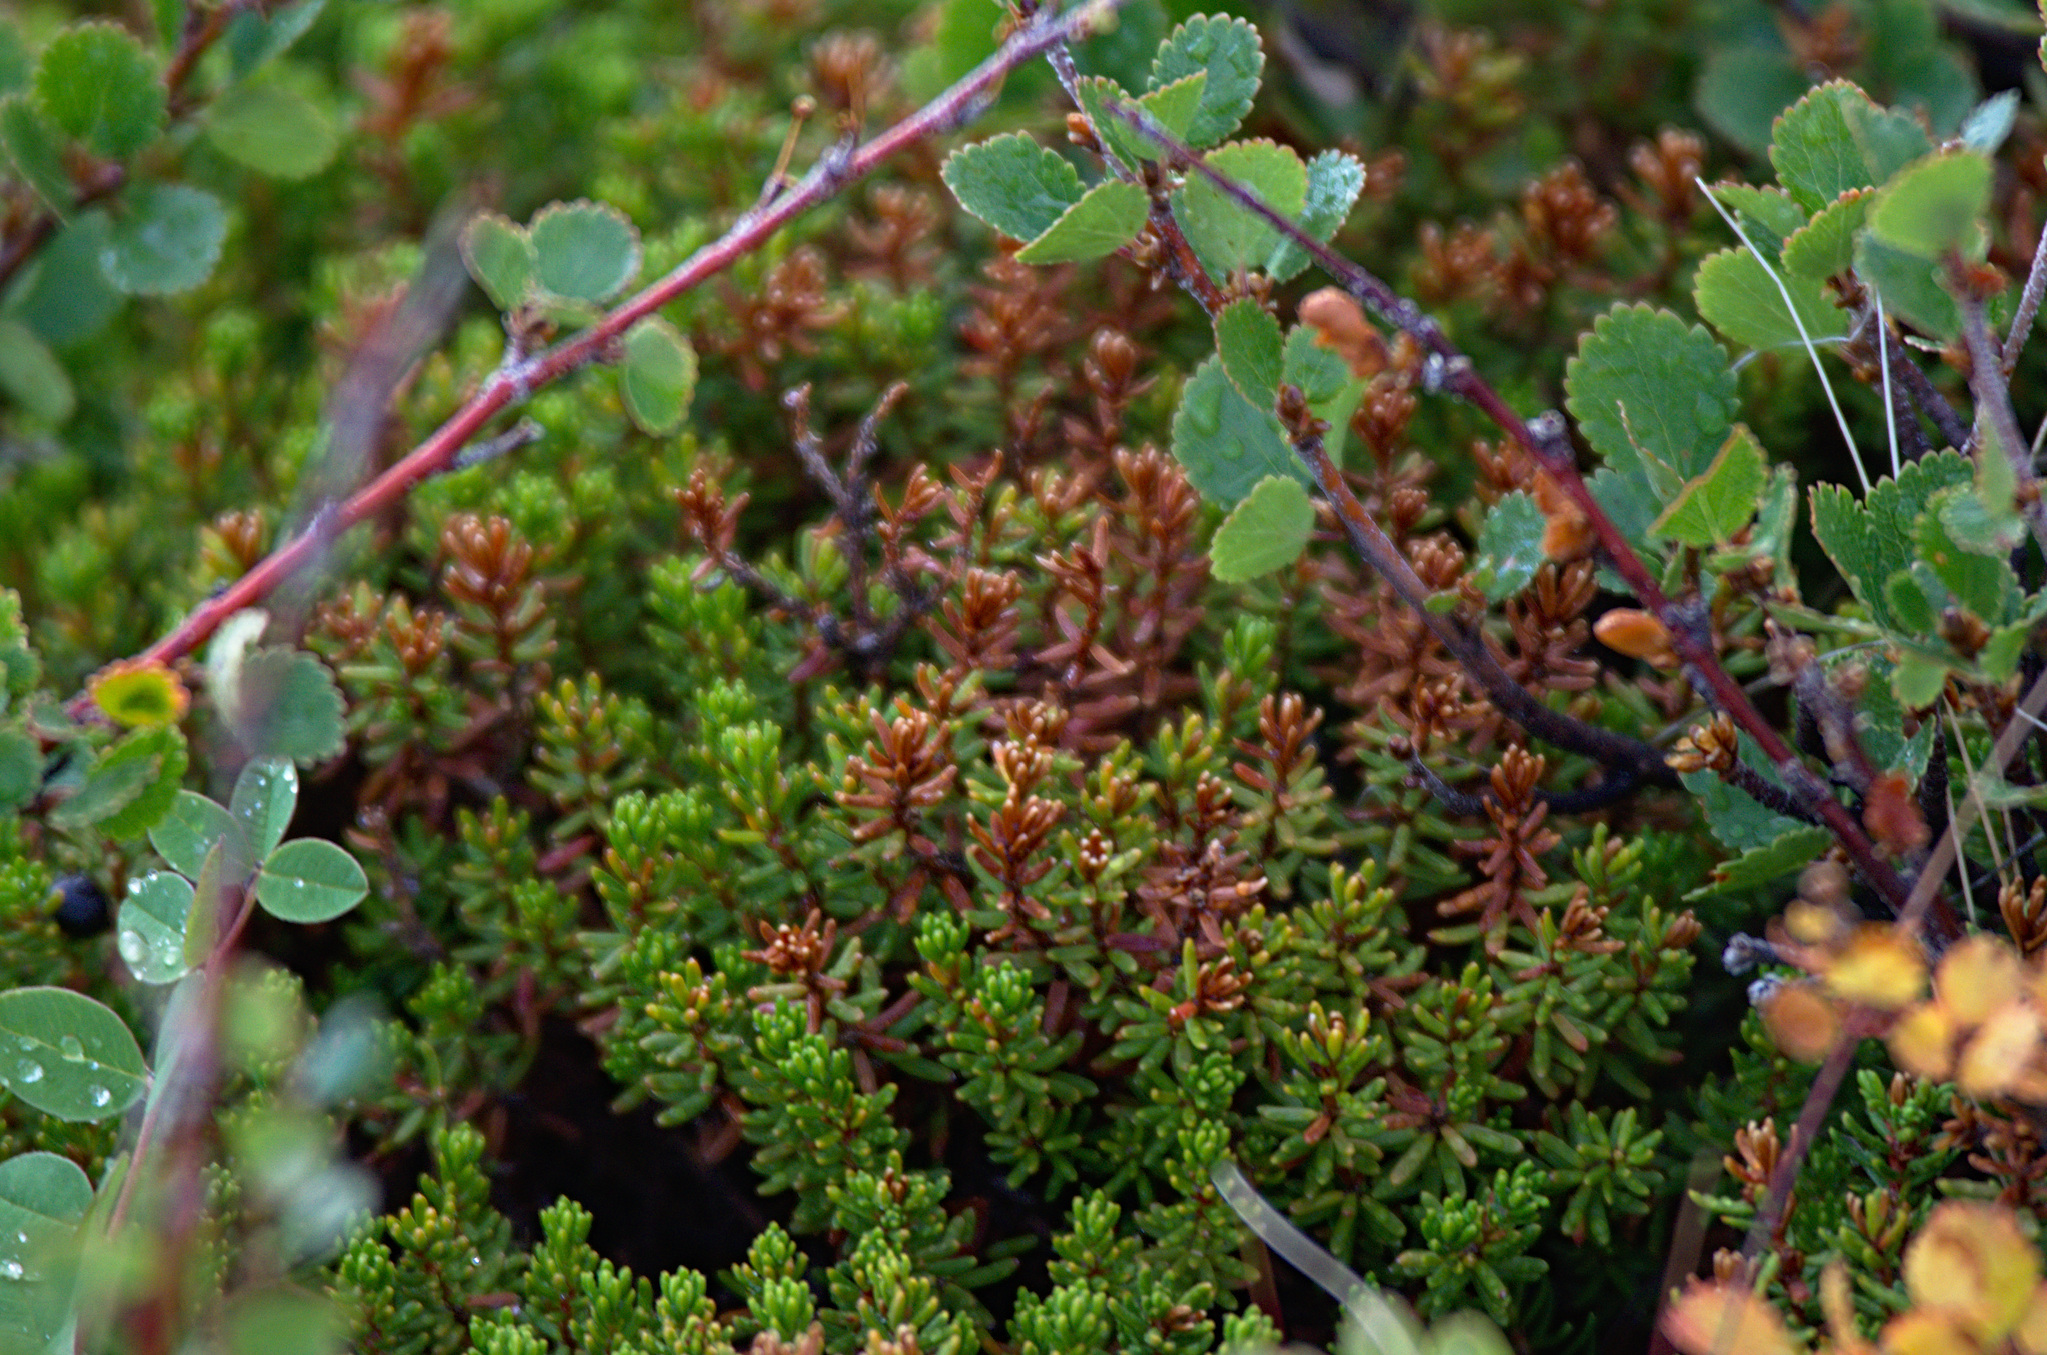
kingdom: Plantae
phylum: Tracheophyta
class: Magnoliopsida
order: Ericales
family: Ericaceae
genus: Empetrum
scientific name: Empetrum nigrum
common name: Black crowberry
